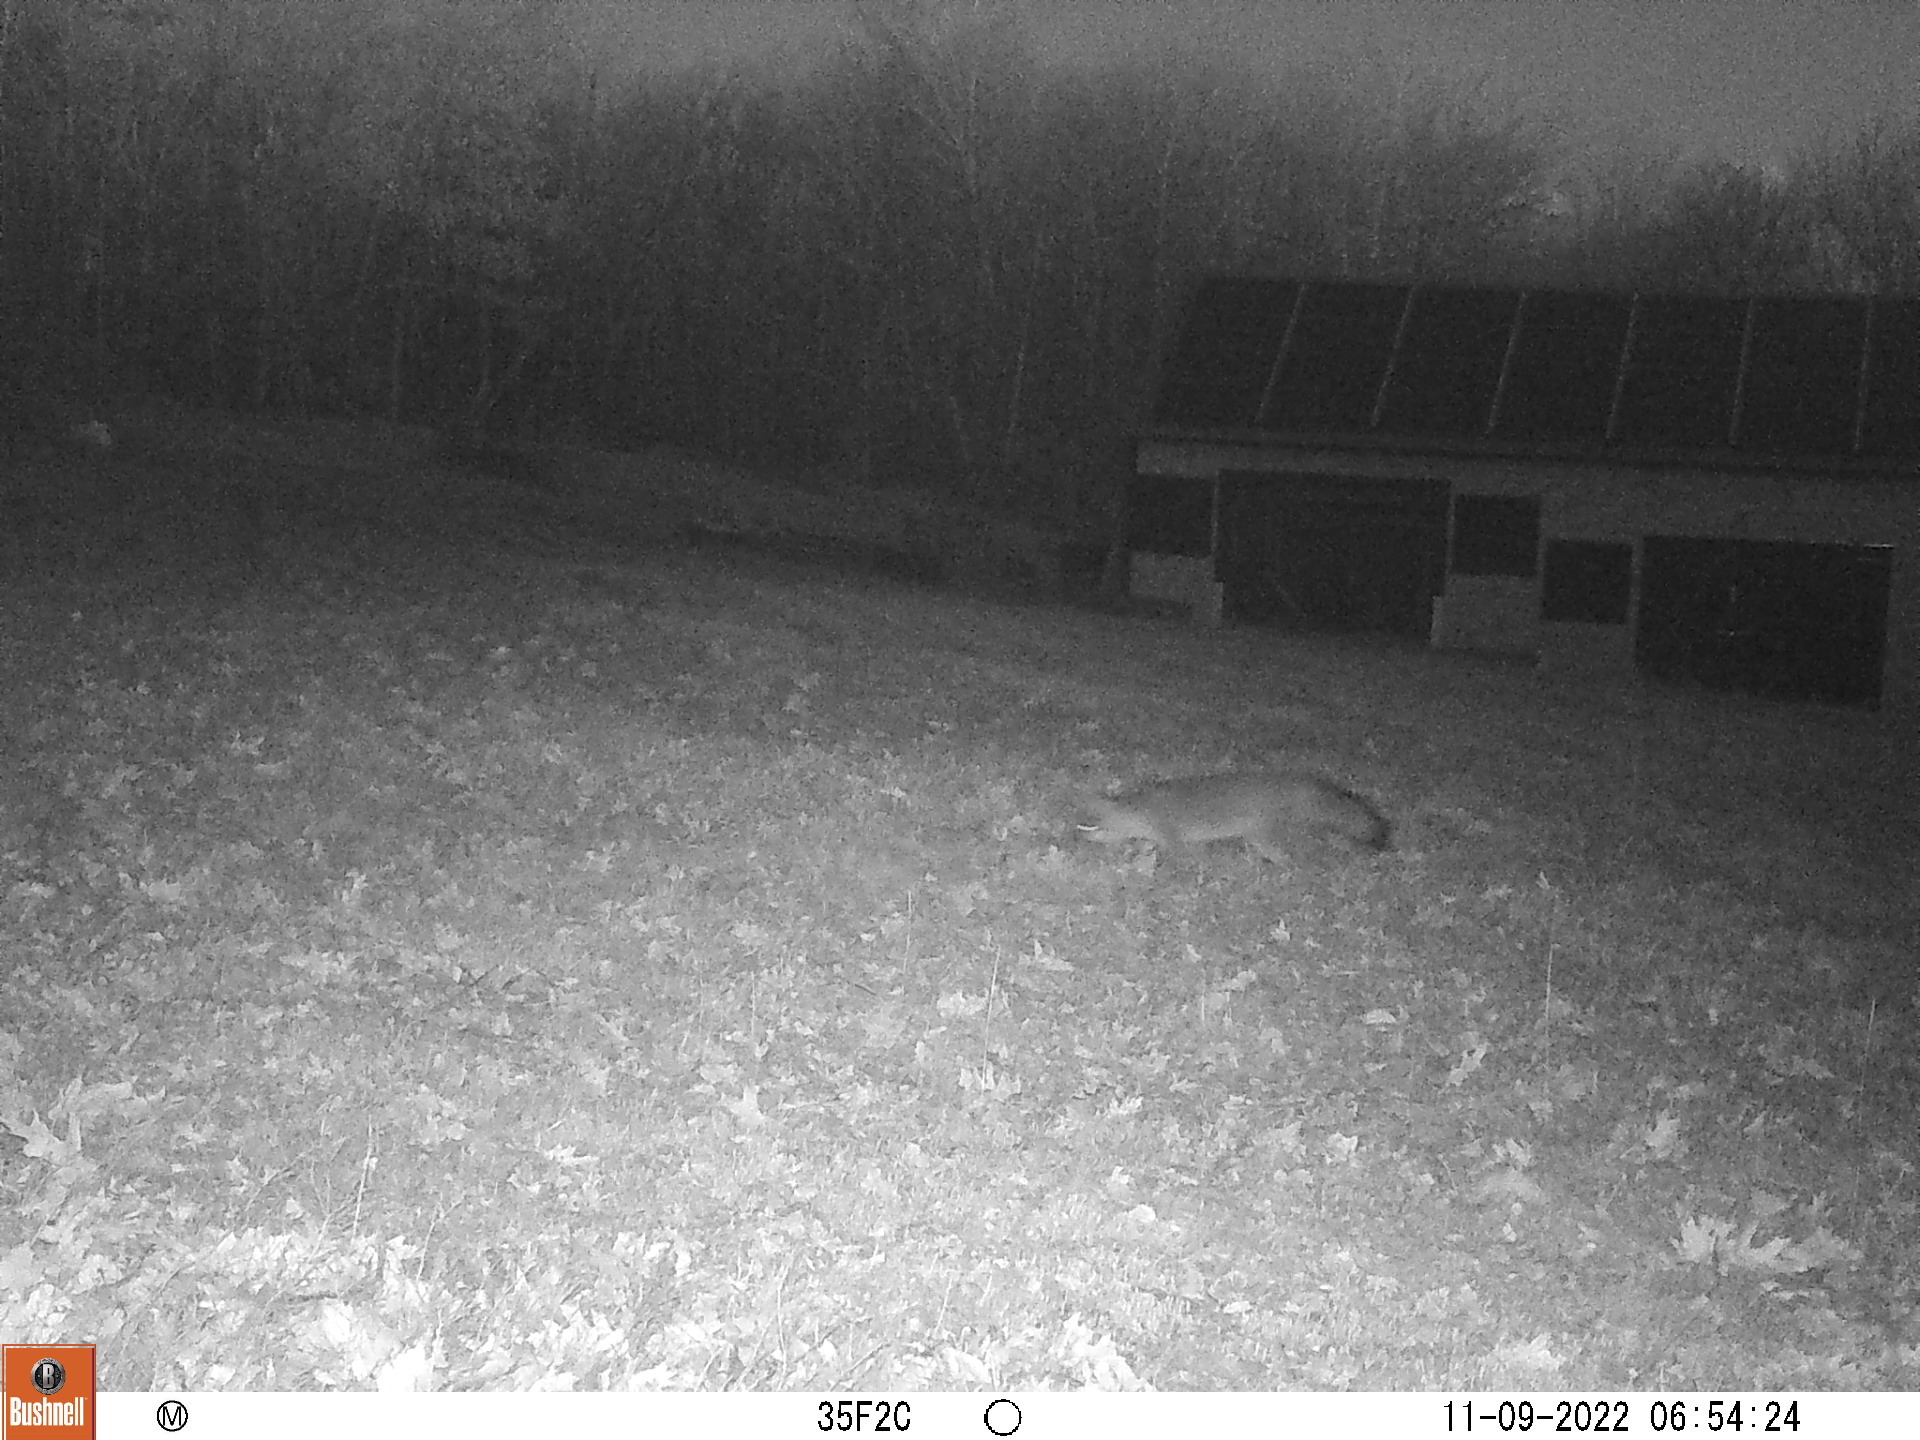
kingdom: Animalia
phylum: Chordata
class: Mammalia
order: Carnivora
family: Canidae
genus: Urocyon
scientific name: Urocyon cinereoargenteus
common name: Gray fox
